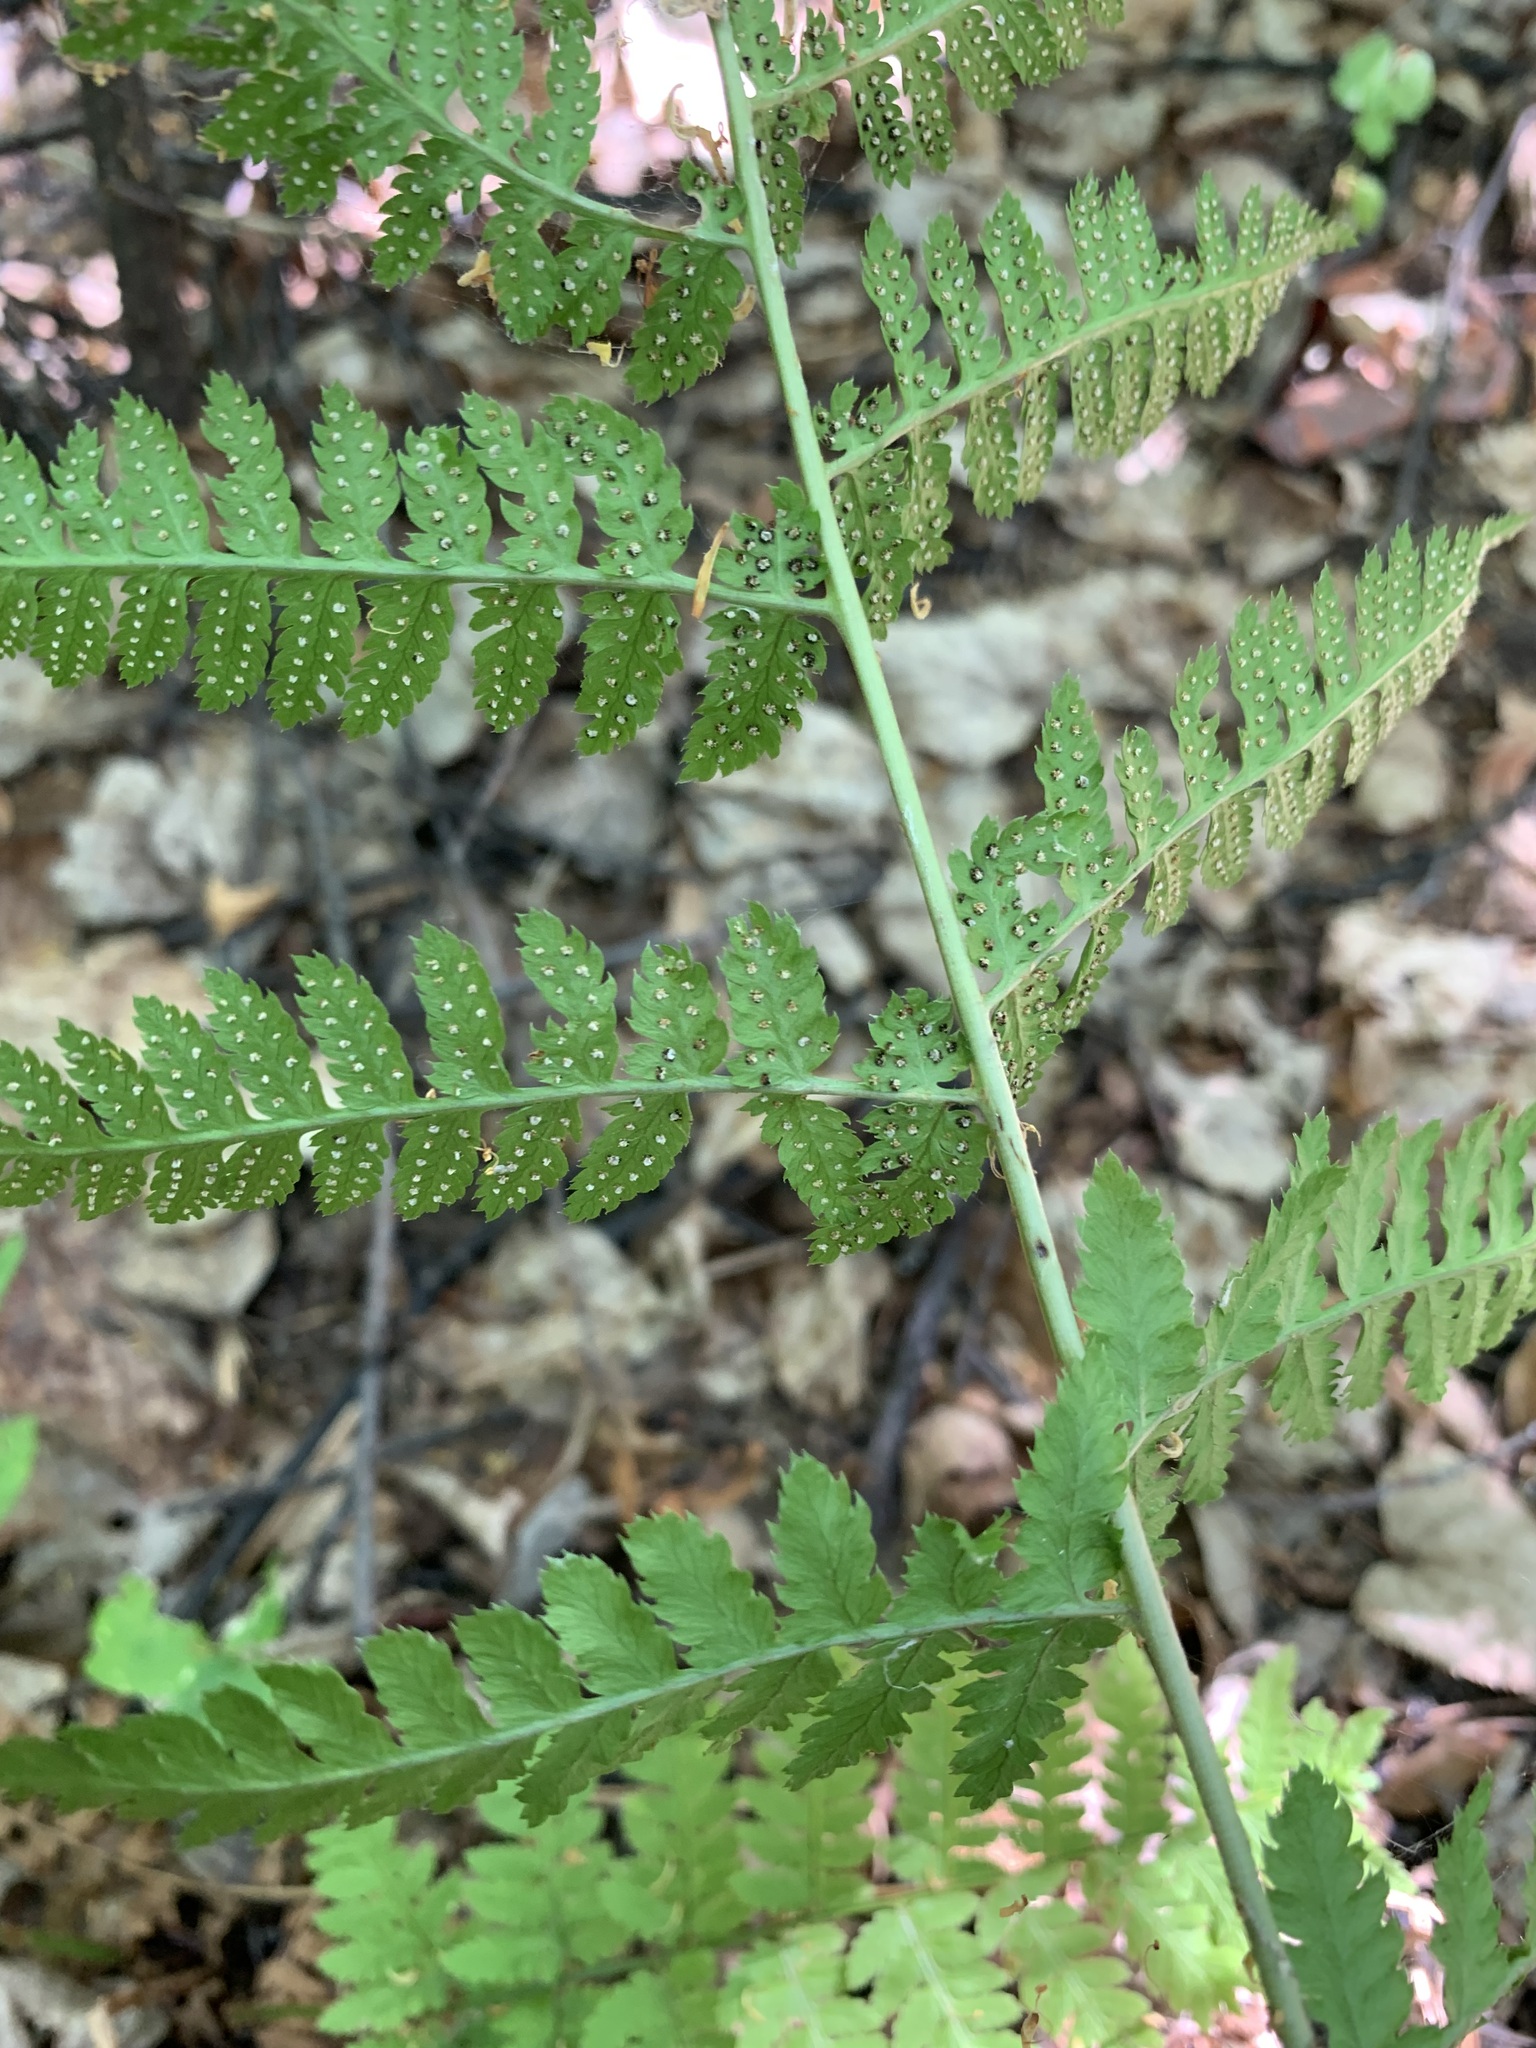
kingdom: Plantae
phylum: Tracheophyta
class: Polypodiopsida
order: Polypodiales
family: Dryopteridaceae
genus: Dryopteris
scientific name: Dryopteris carthusiana
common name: Narrow buckler-fern
